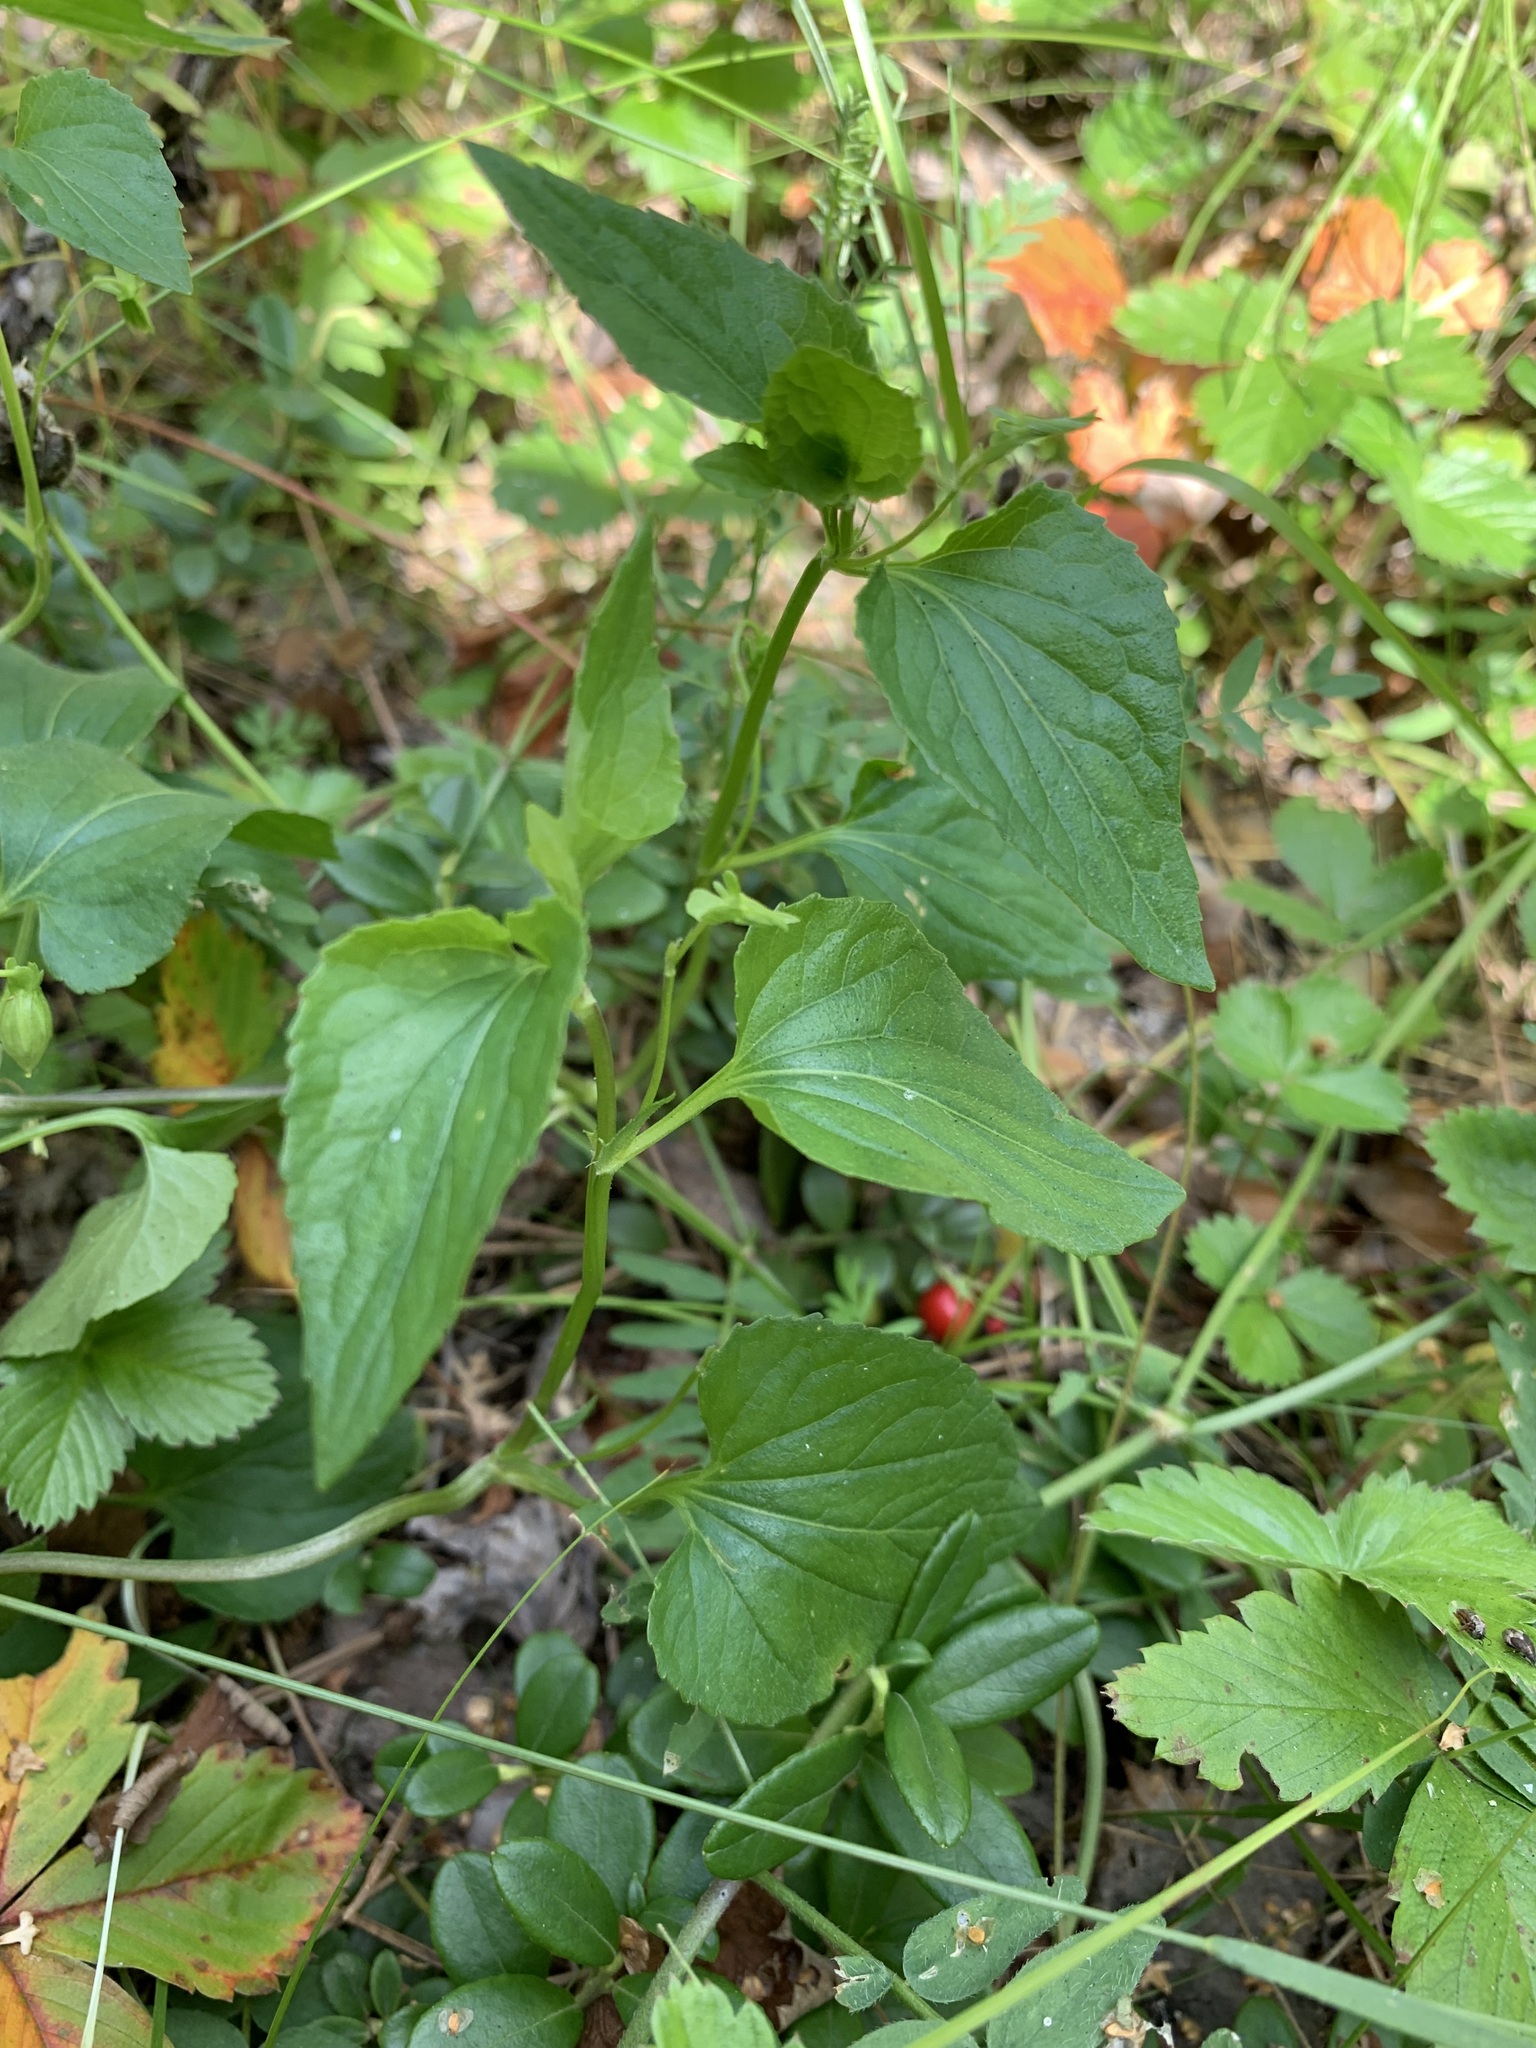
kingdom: Plantae
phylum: Tracheophyta
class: Magnoliopsida
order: Malpighiales
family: Violaceae
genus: Viola
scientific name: Viola
